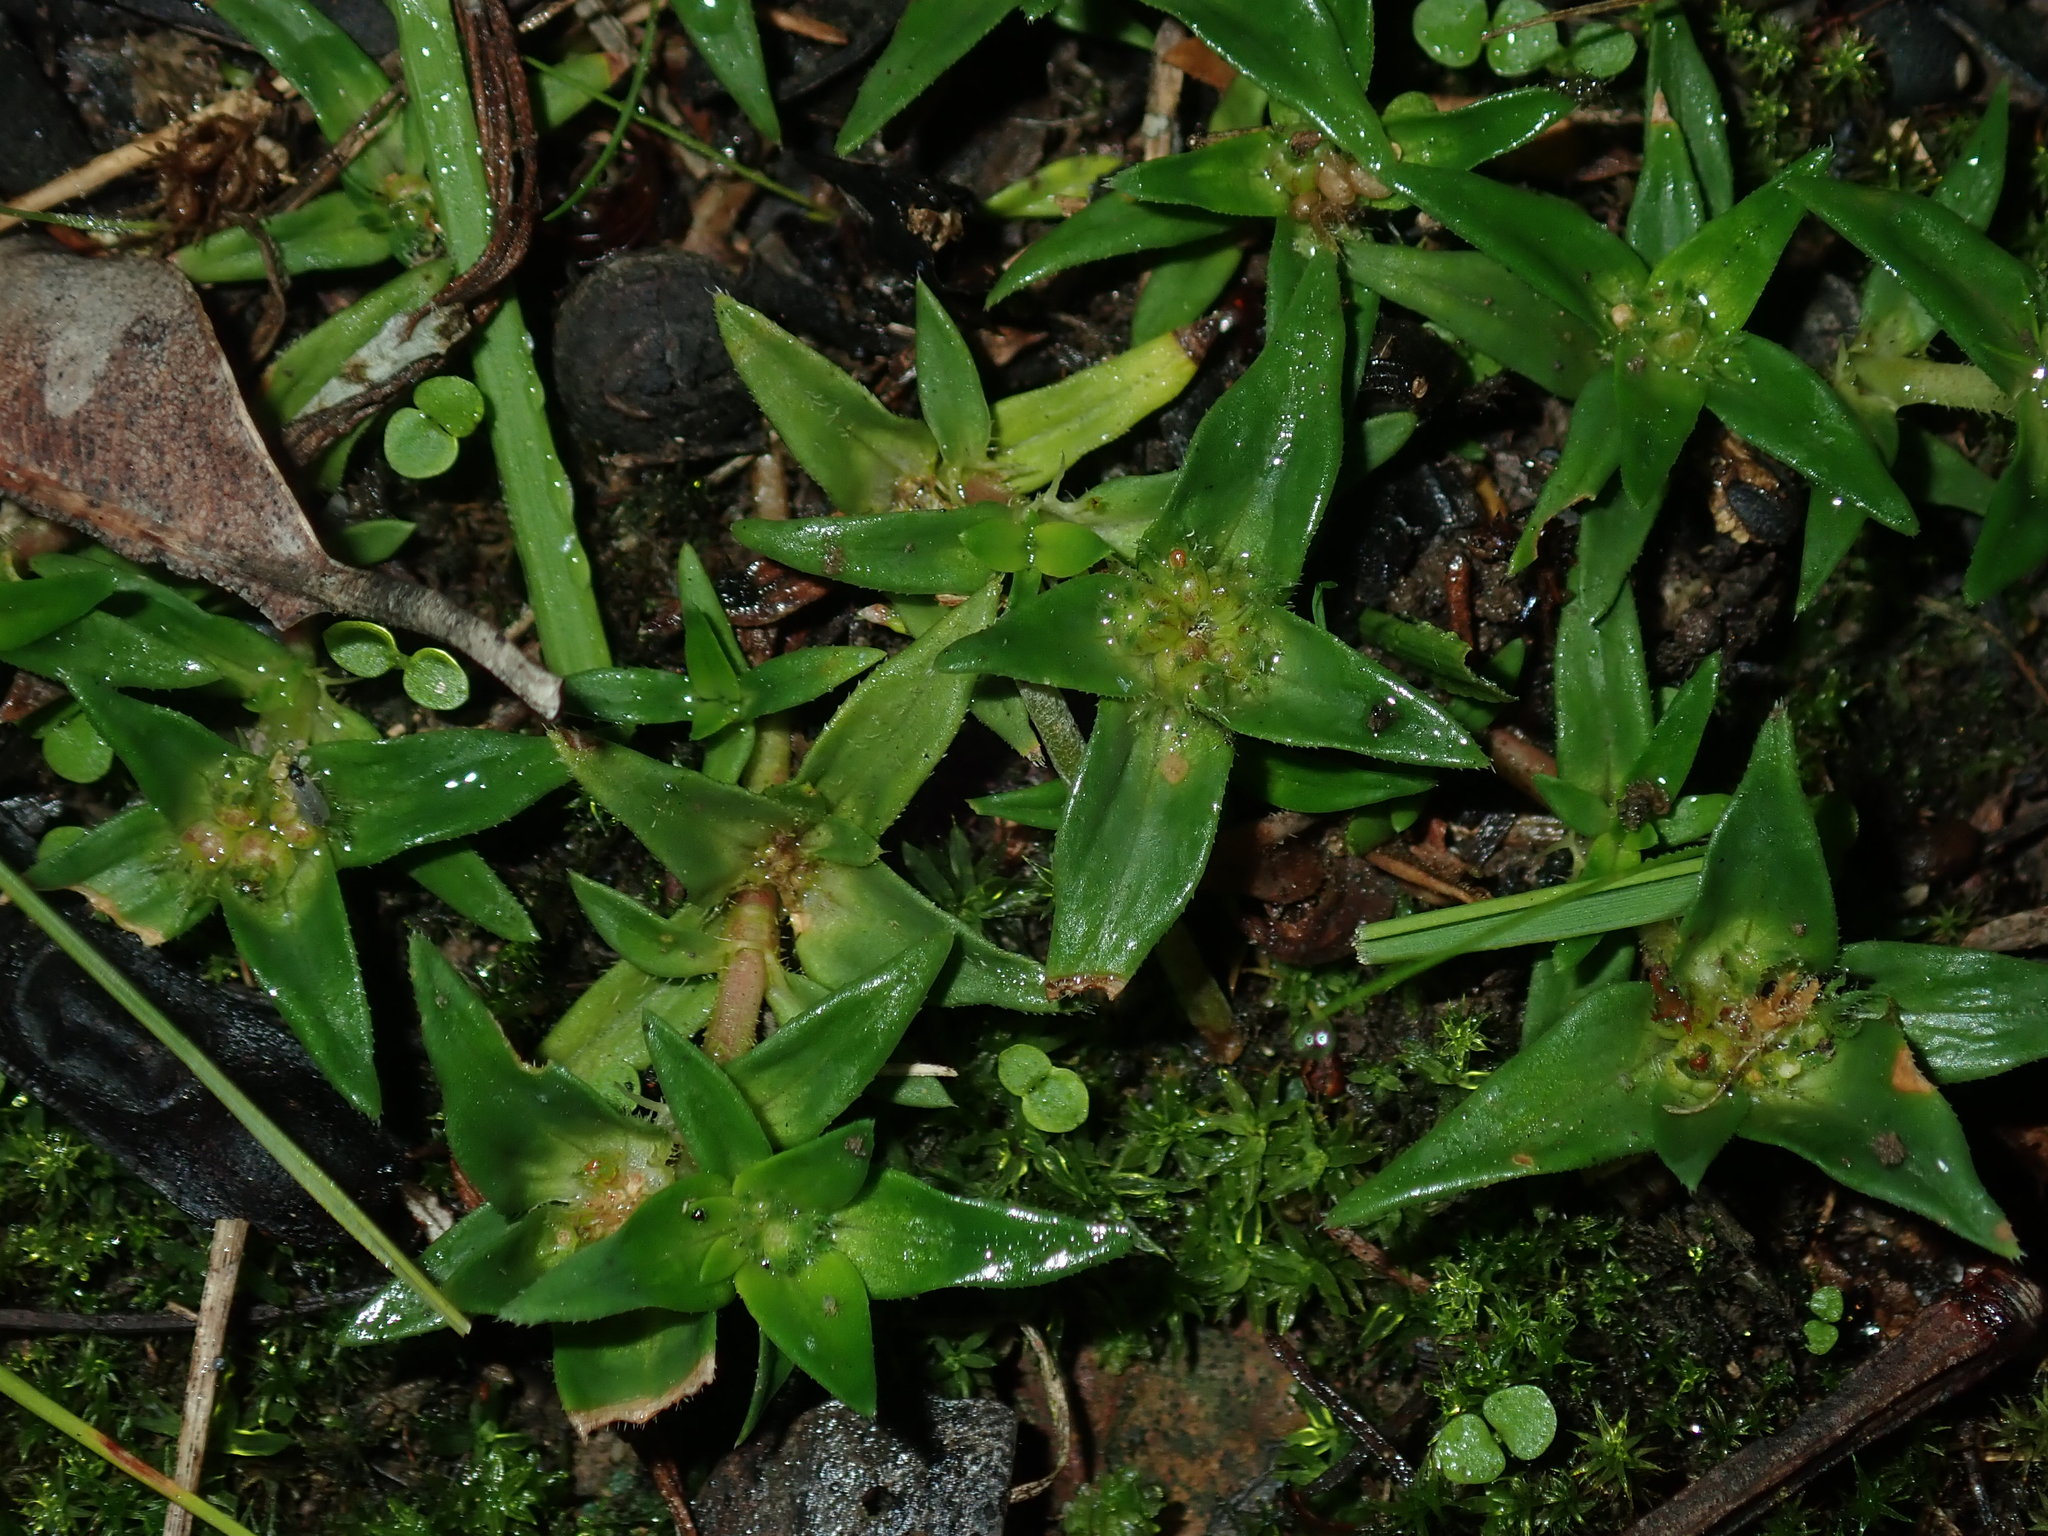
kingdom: Plantae
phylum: Tracheophyta
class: Magnoliopsida
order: Gentianales
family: Rubiaceae
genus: Richardia
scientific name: Richardia stellaris
